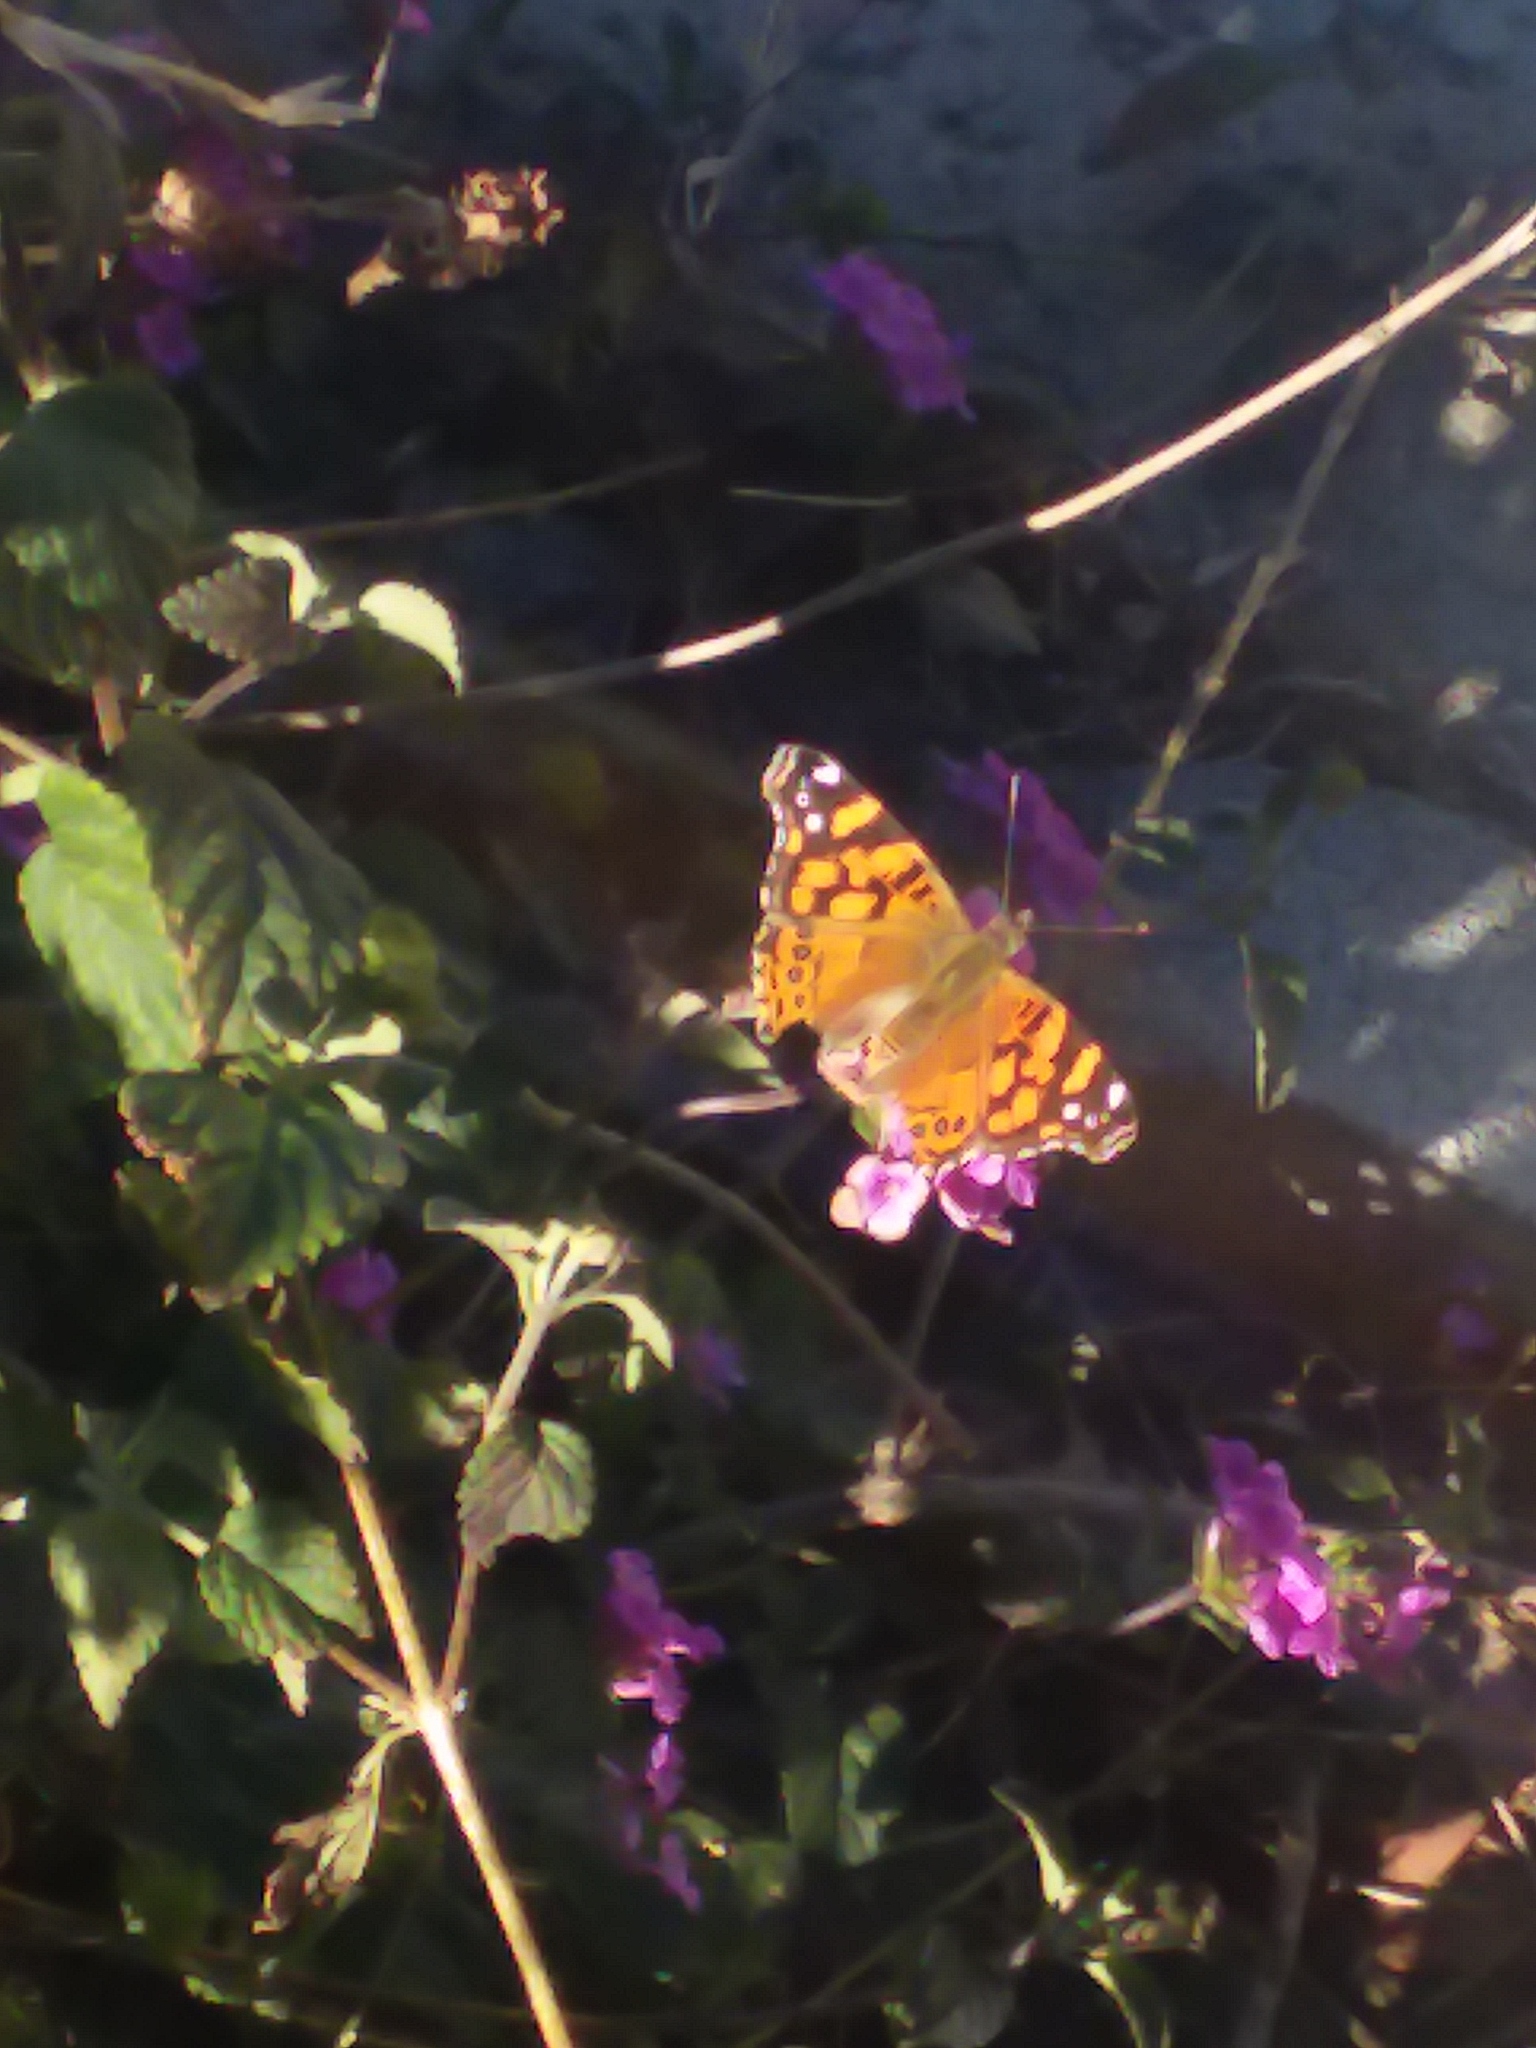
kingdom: Animalia
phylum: Arthropoda
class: Insecta
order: Lepidoptera
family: Nymphalidae
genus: Vanessa
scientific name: Vanessa annabella
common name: West coast lady
